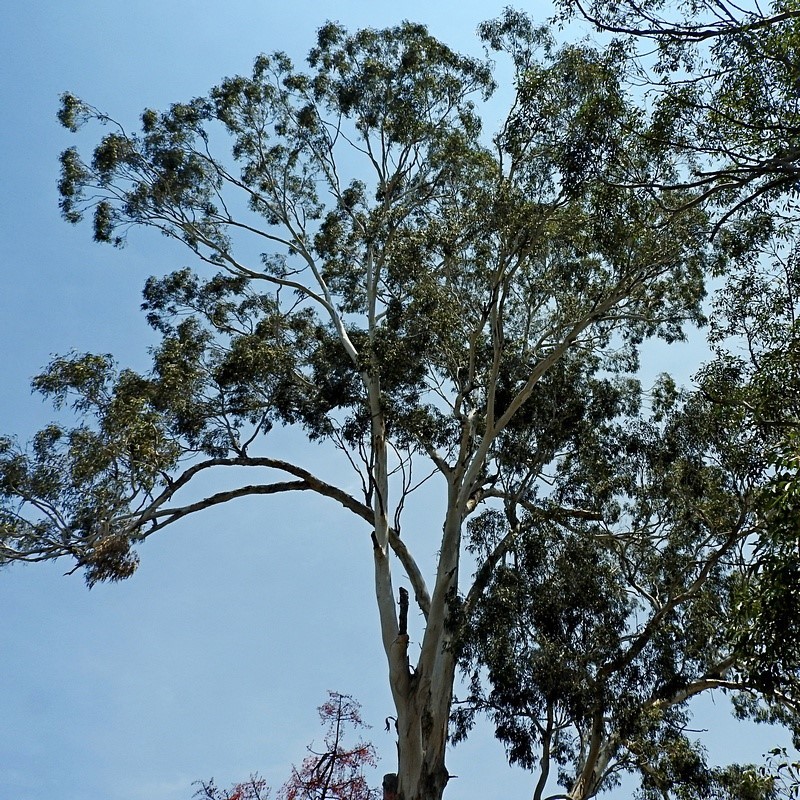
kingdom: Plantae
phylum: Tracheophyta
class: Magnoliopsida
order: Myrtales
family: Myrtaceae
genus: Eucalyptus
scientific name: Eucalyptus bosistoana
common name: Bosisto's-box
